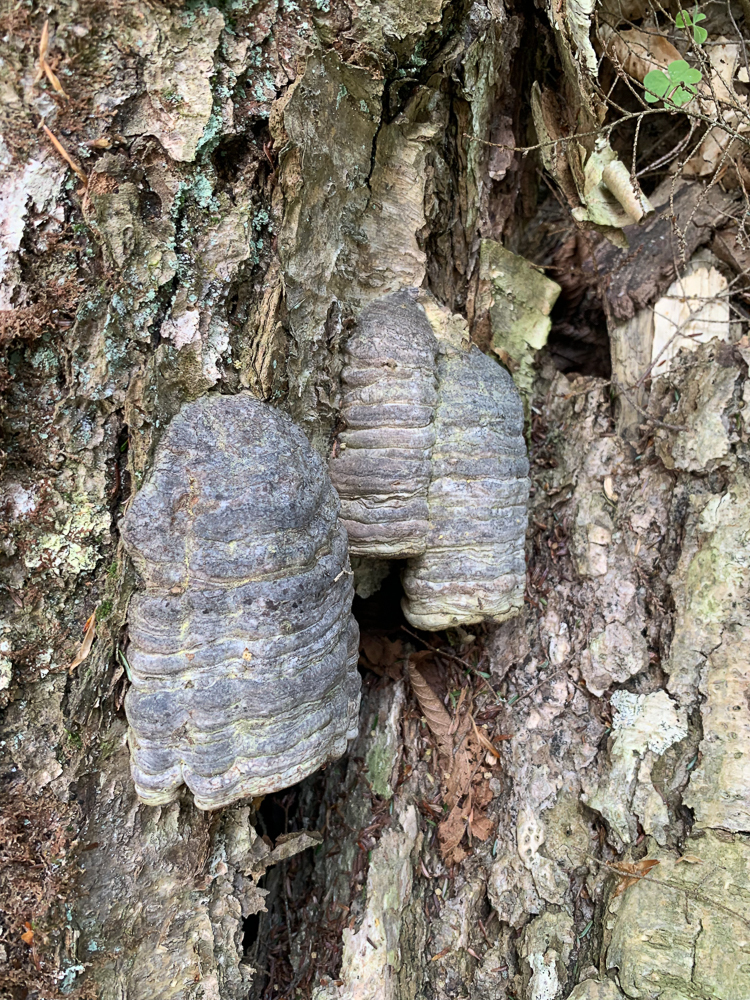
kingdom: Fungi
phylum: Basidiomycota
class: Agaricomycetes
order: Polyporales
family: Polyporaceae
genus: Fomes
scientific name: Fomes fomentarius
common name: Hoof fungus
